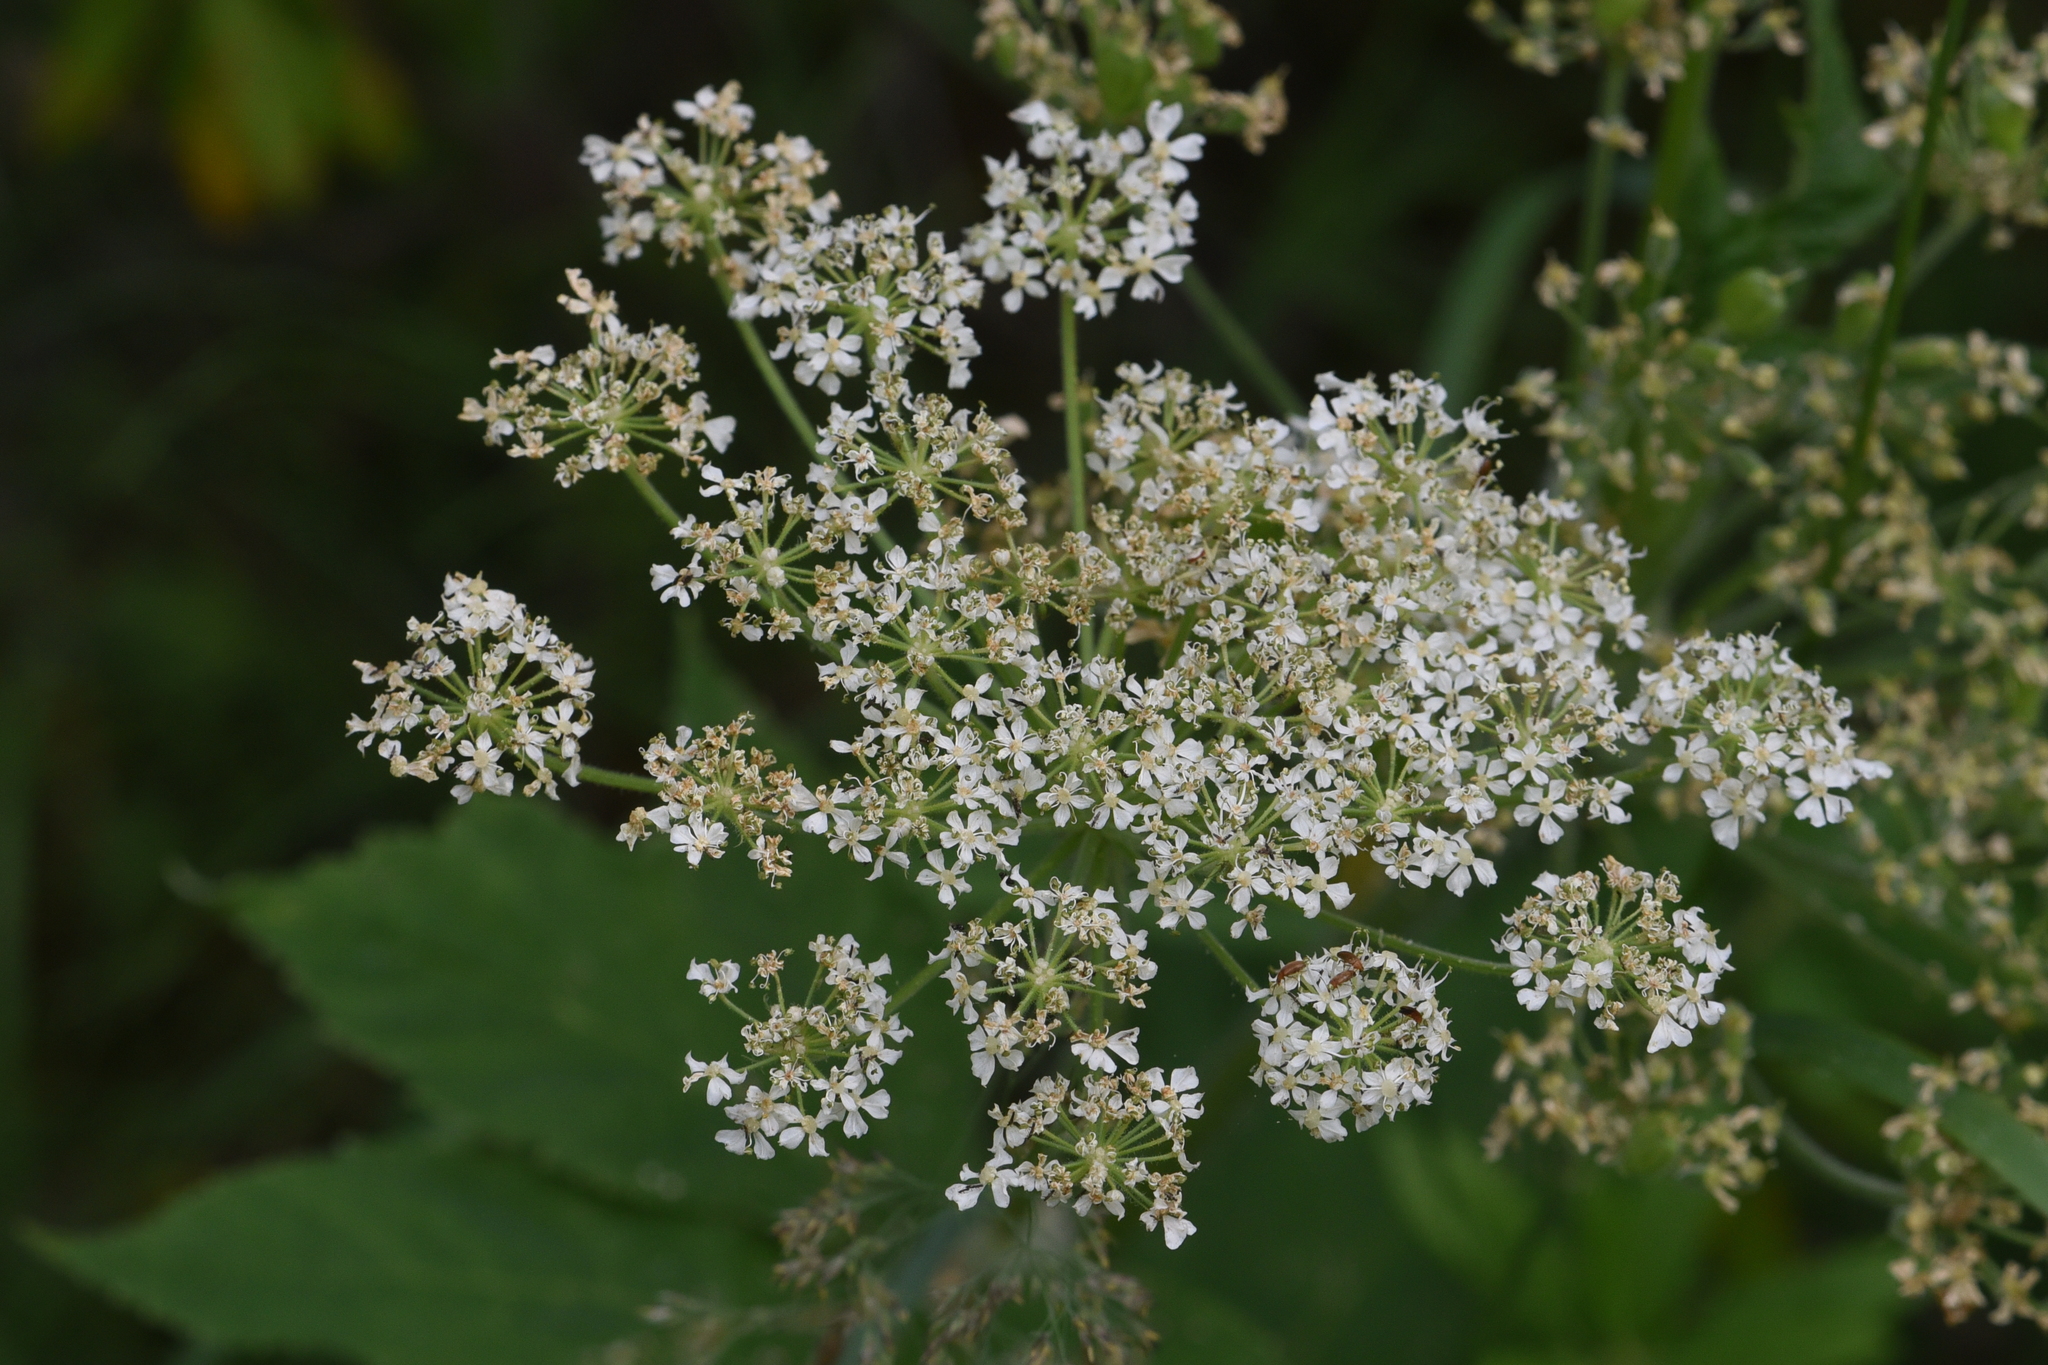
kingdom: Plantae
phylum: Tracheophyta
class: Magnoliopsida
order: Apiales
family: Apiaceae
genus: Heracleum
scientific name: Heracleum maximum
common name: American cow parsnip
